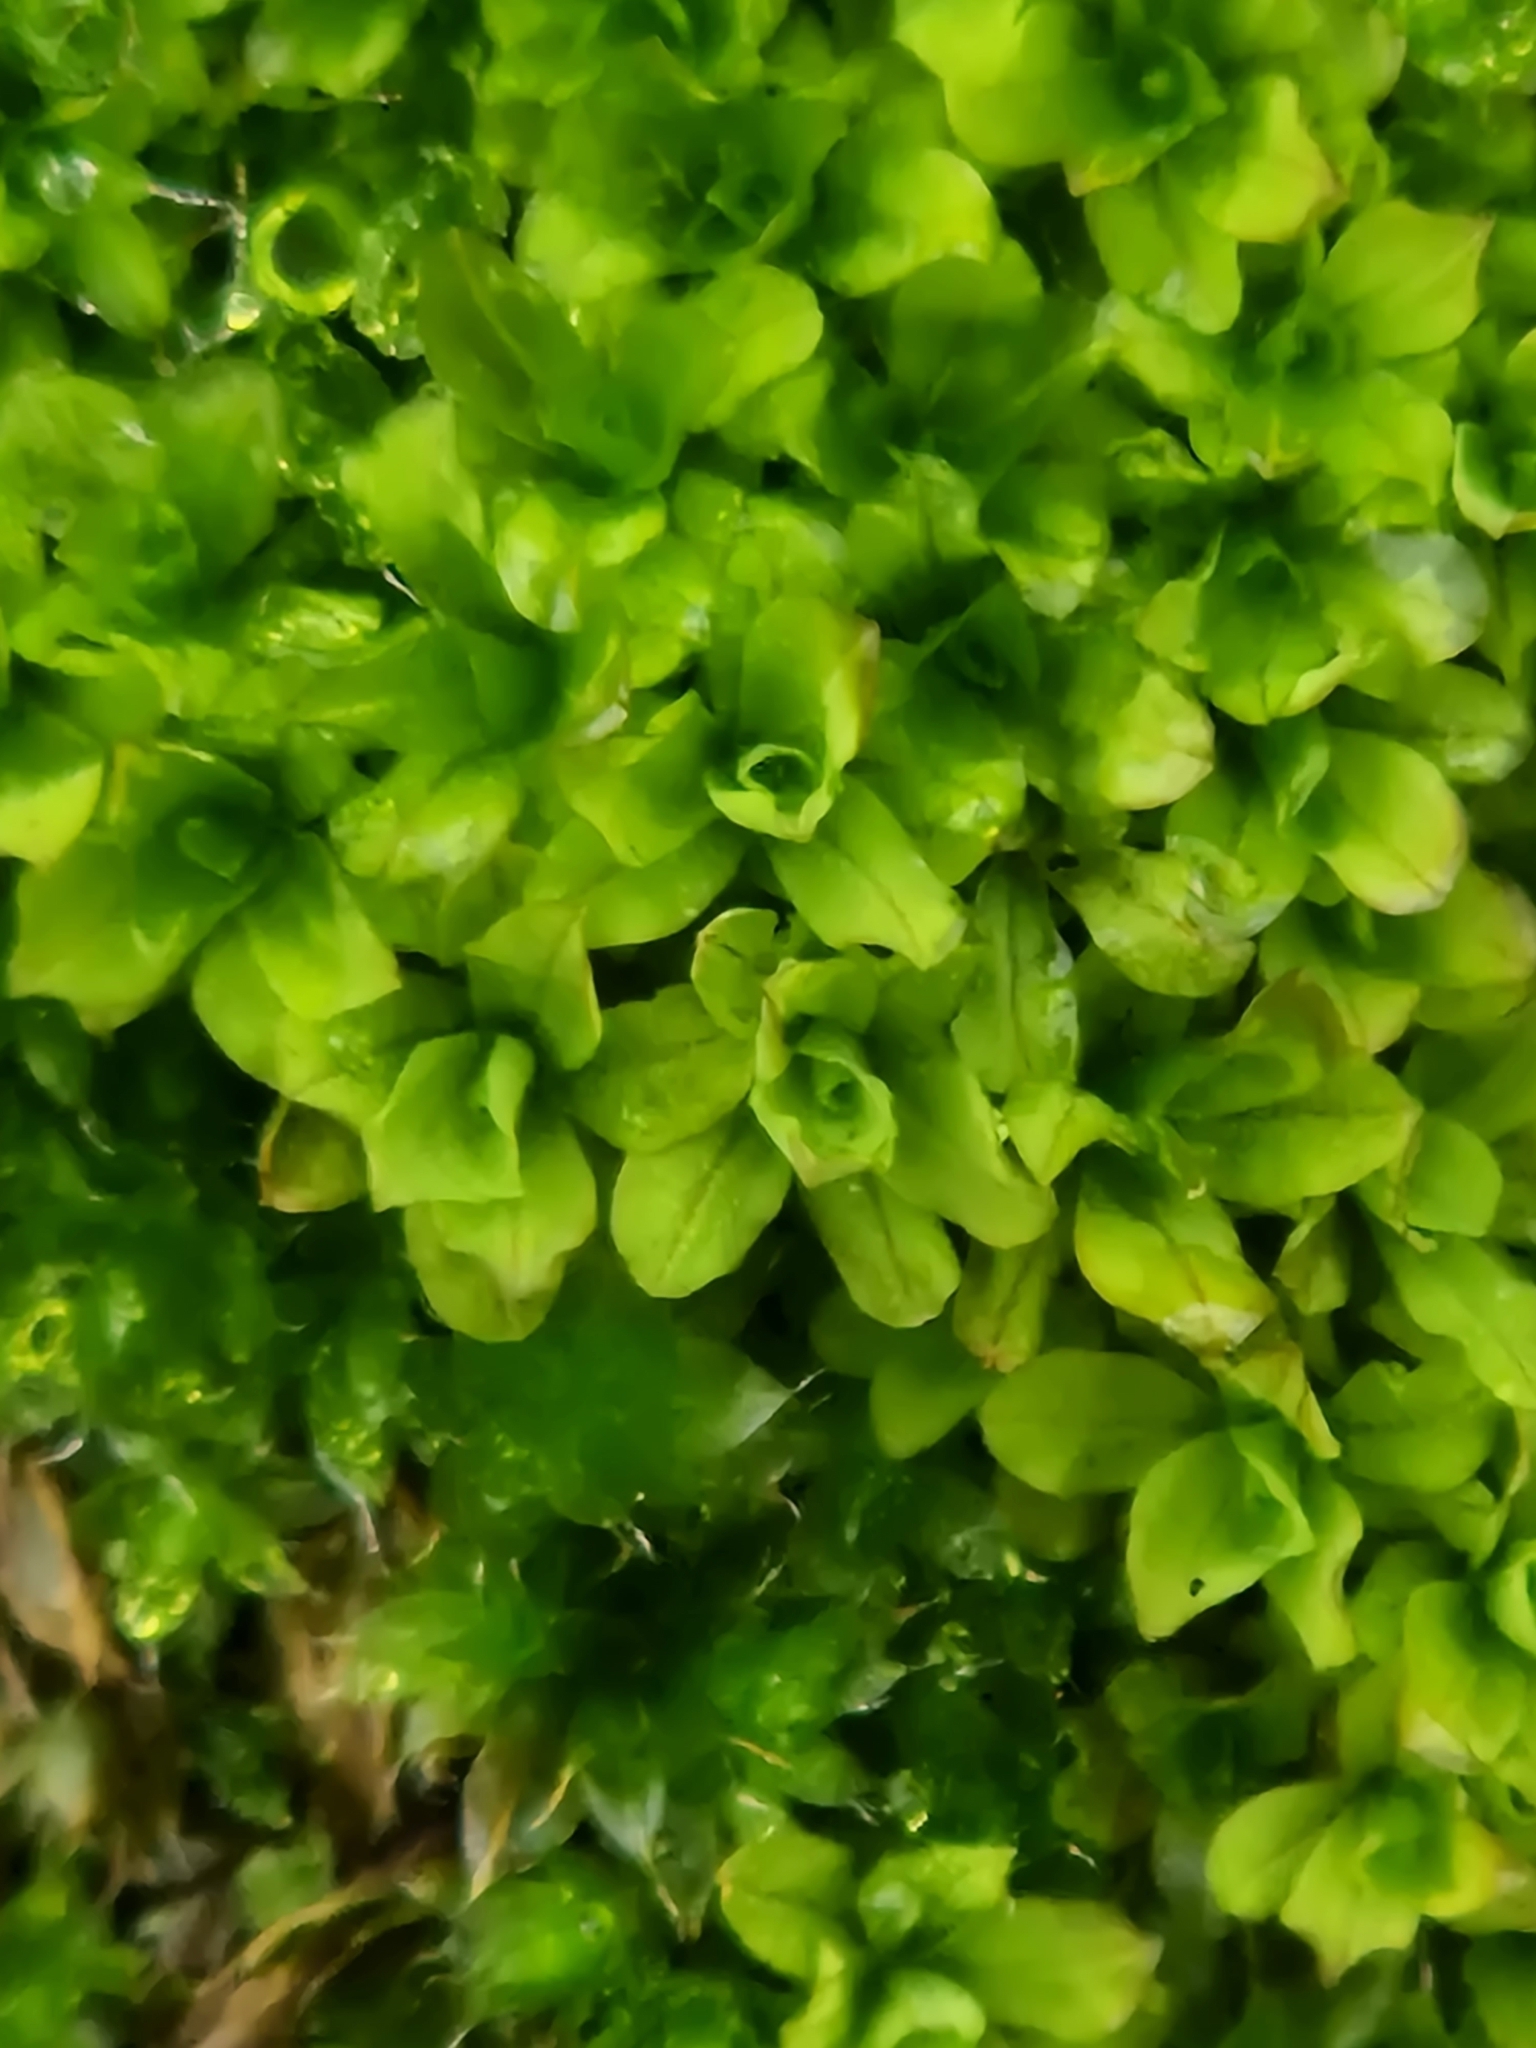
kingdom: Plantae
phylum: Bryophyta
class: Bryopsida
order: Pottiales
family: Pottiaceae
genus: Syntrichia
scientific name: Syntrichia latifolia
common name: Water screw-moss
